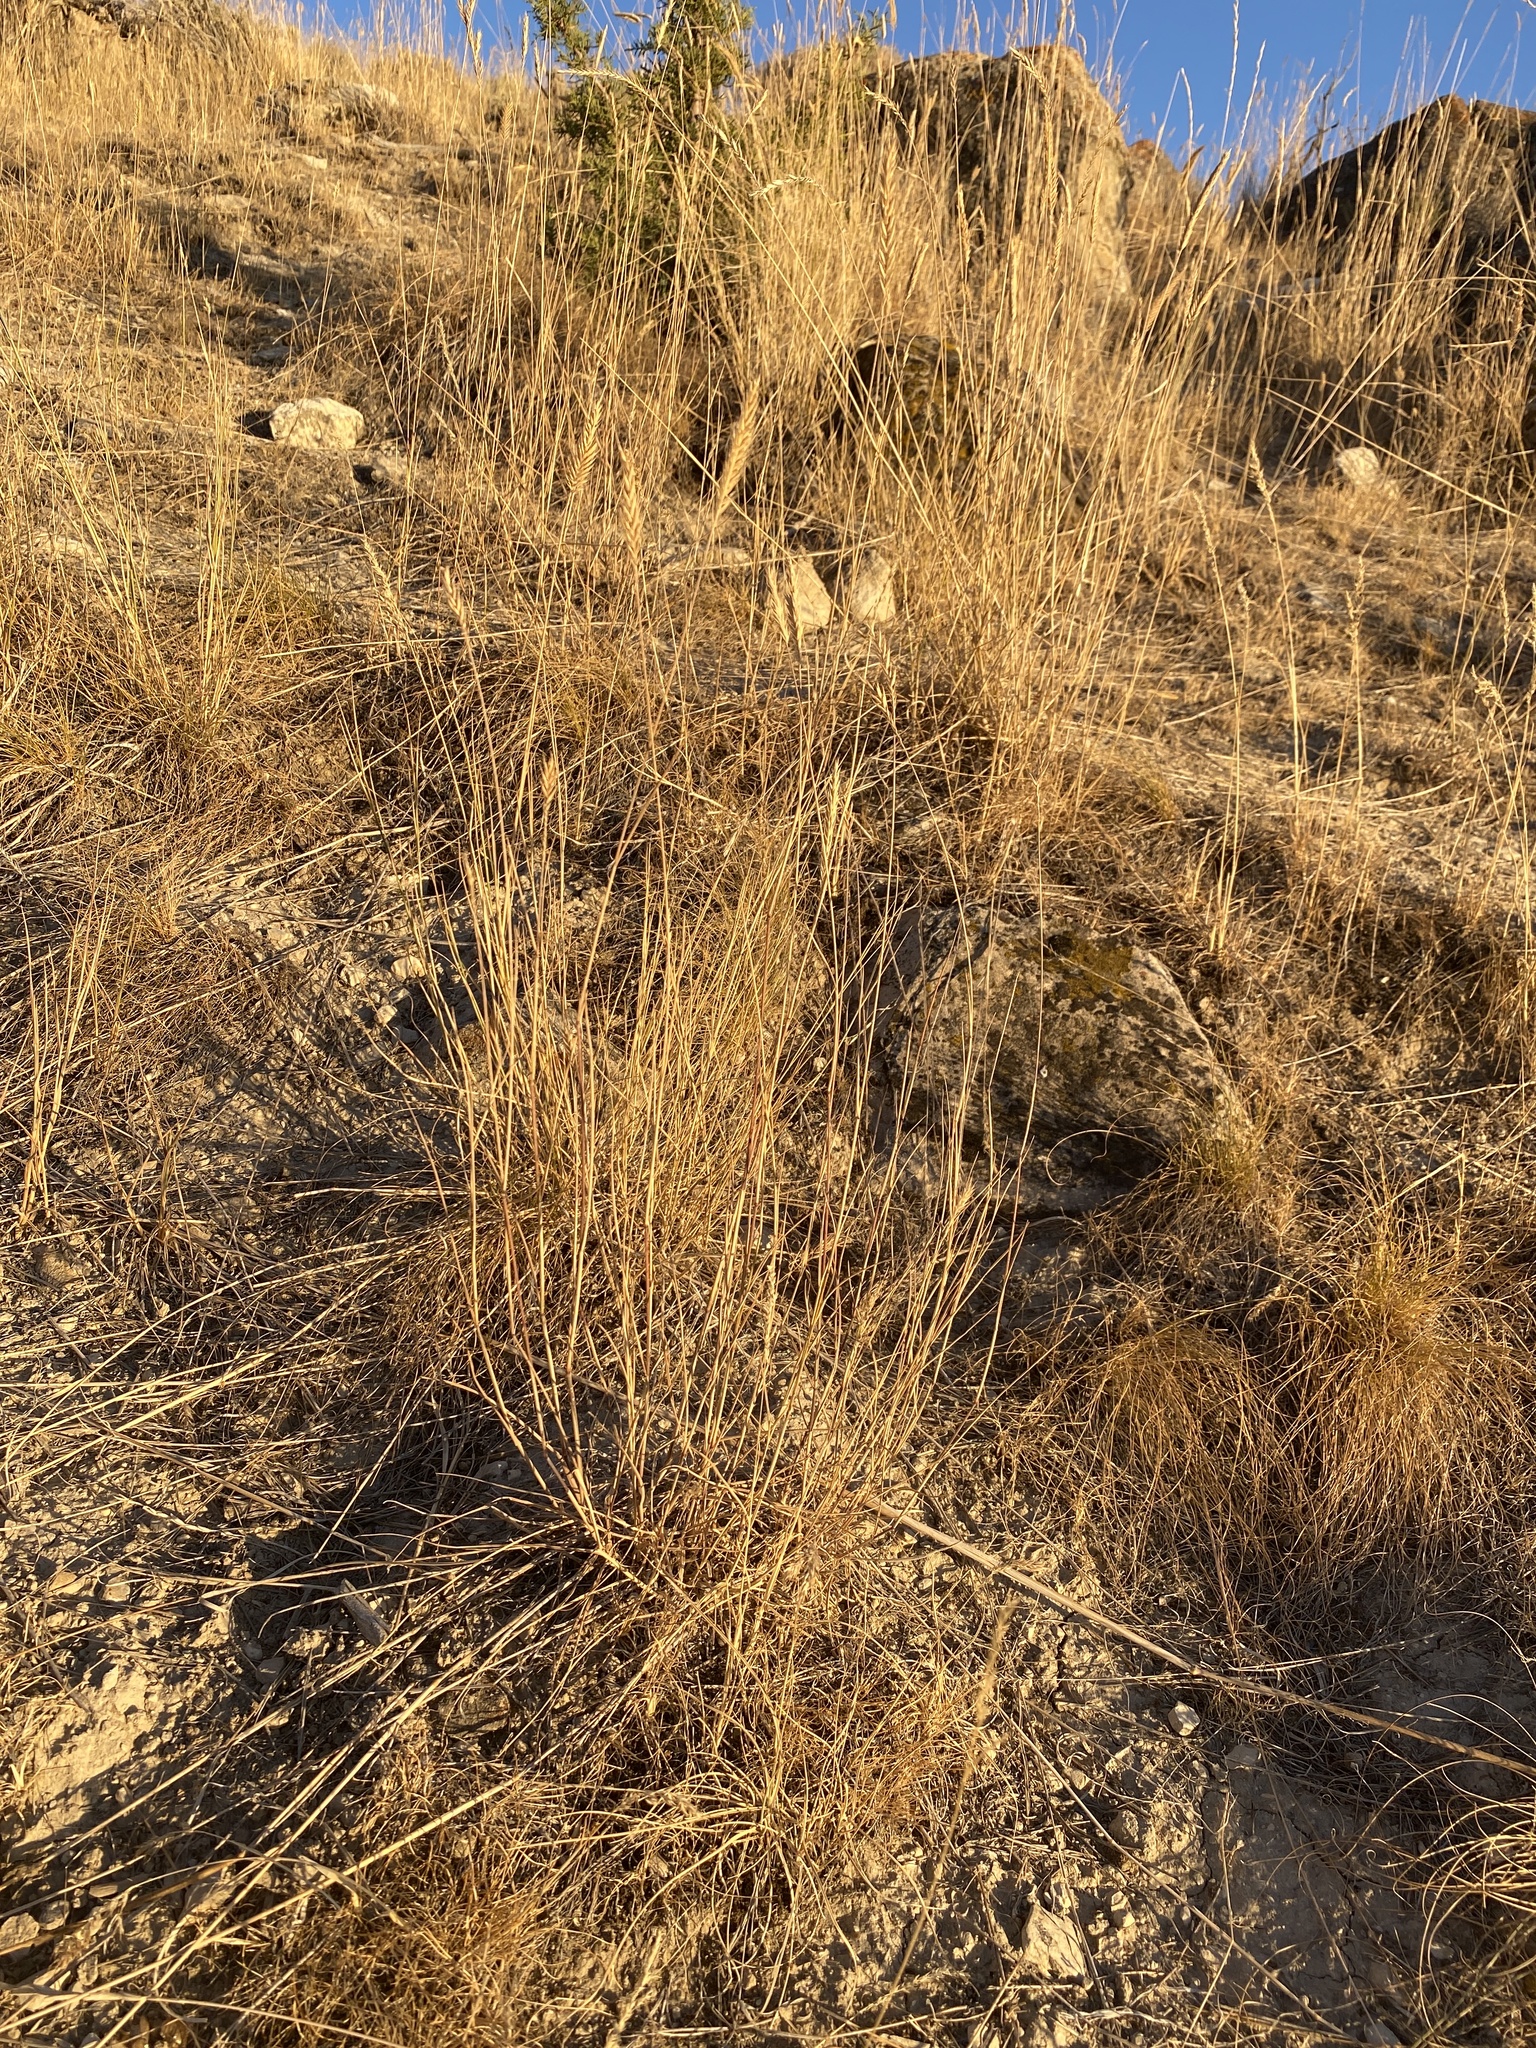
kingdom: Plantae
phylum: Tracheophyta
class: Liliopsida
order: Poales
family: Poaceae
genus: Agropyron
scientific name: Agropyron cristatum
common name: Crested wheatgrass
